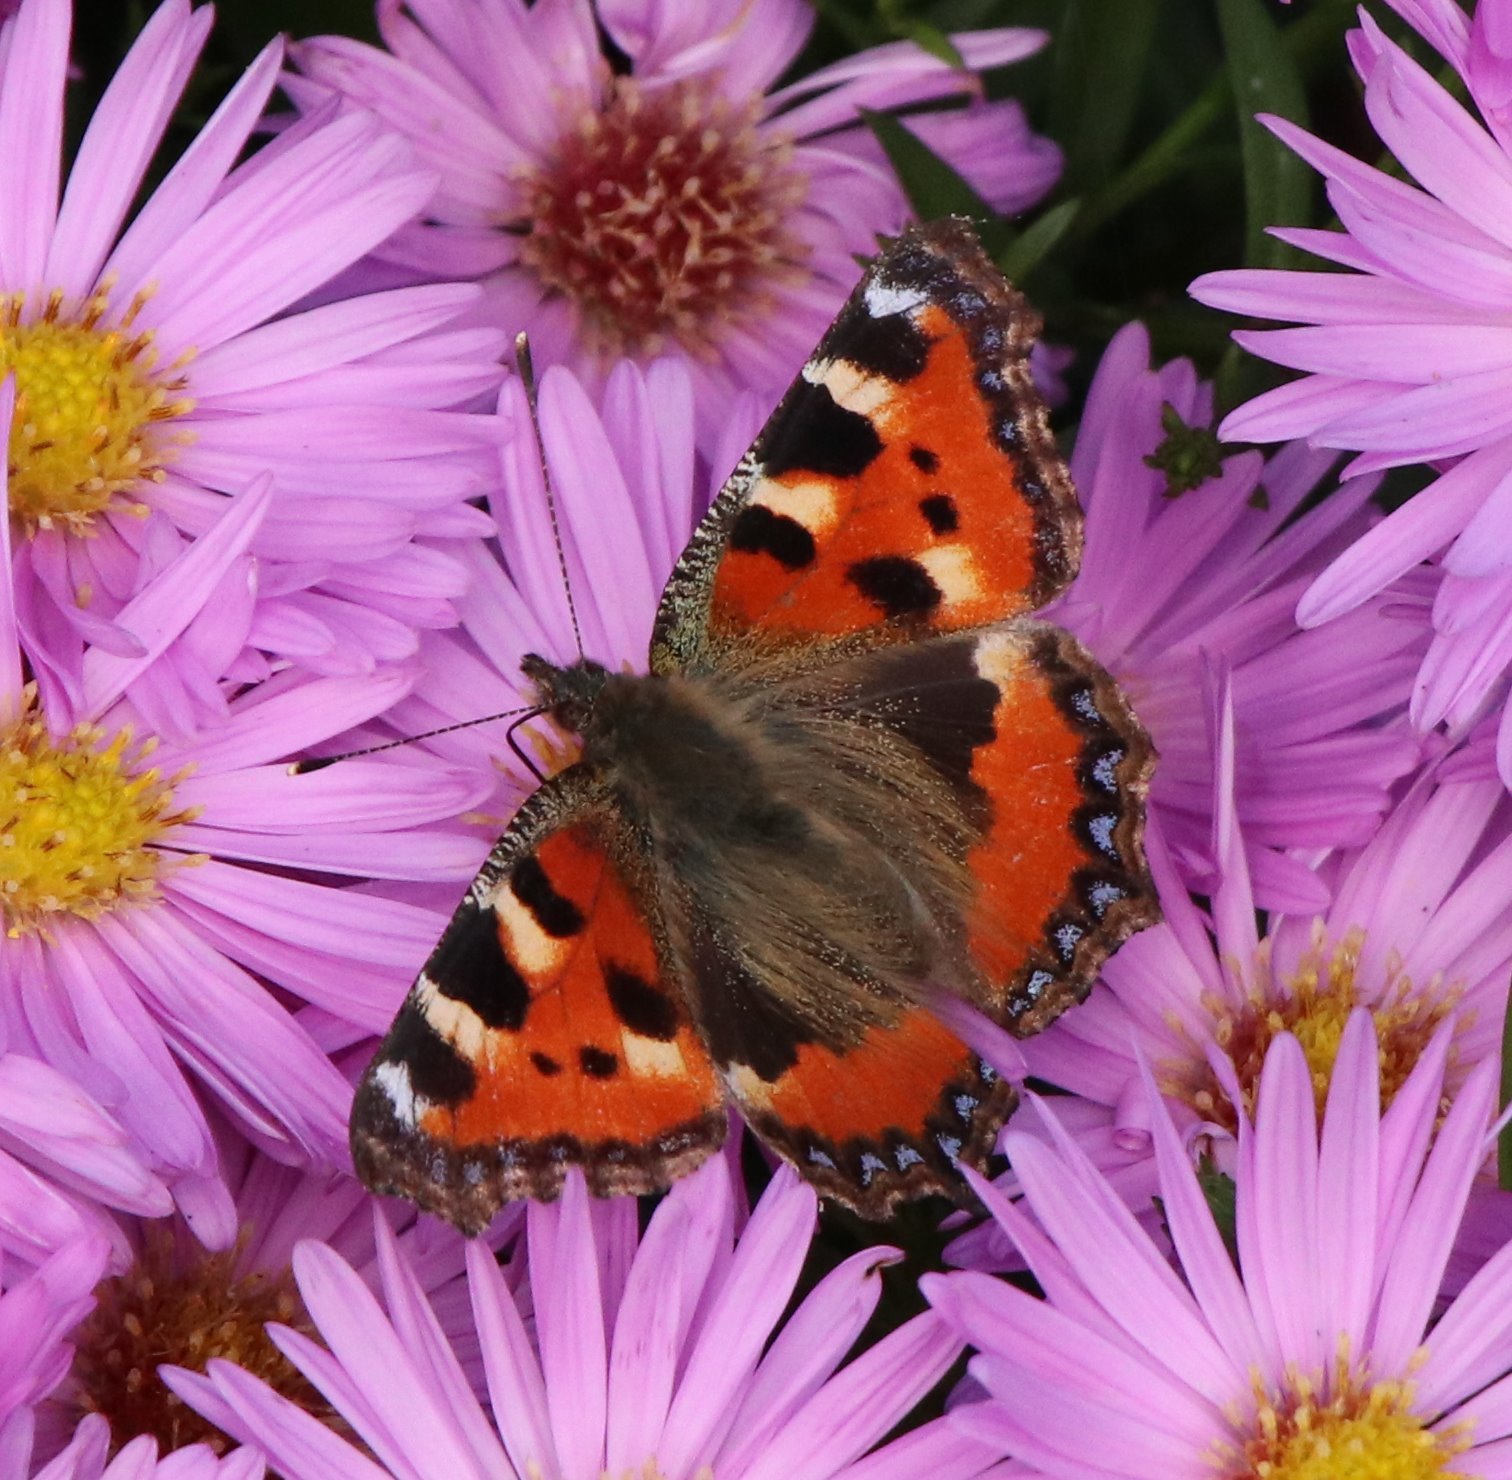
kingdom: Animalia
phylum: Arthropoda
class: Insecta
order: Lepidoptera
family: Nymphalidae
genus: Aglais
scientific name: Aglais urticae
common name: Small tortoiseshell
